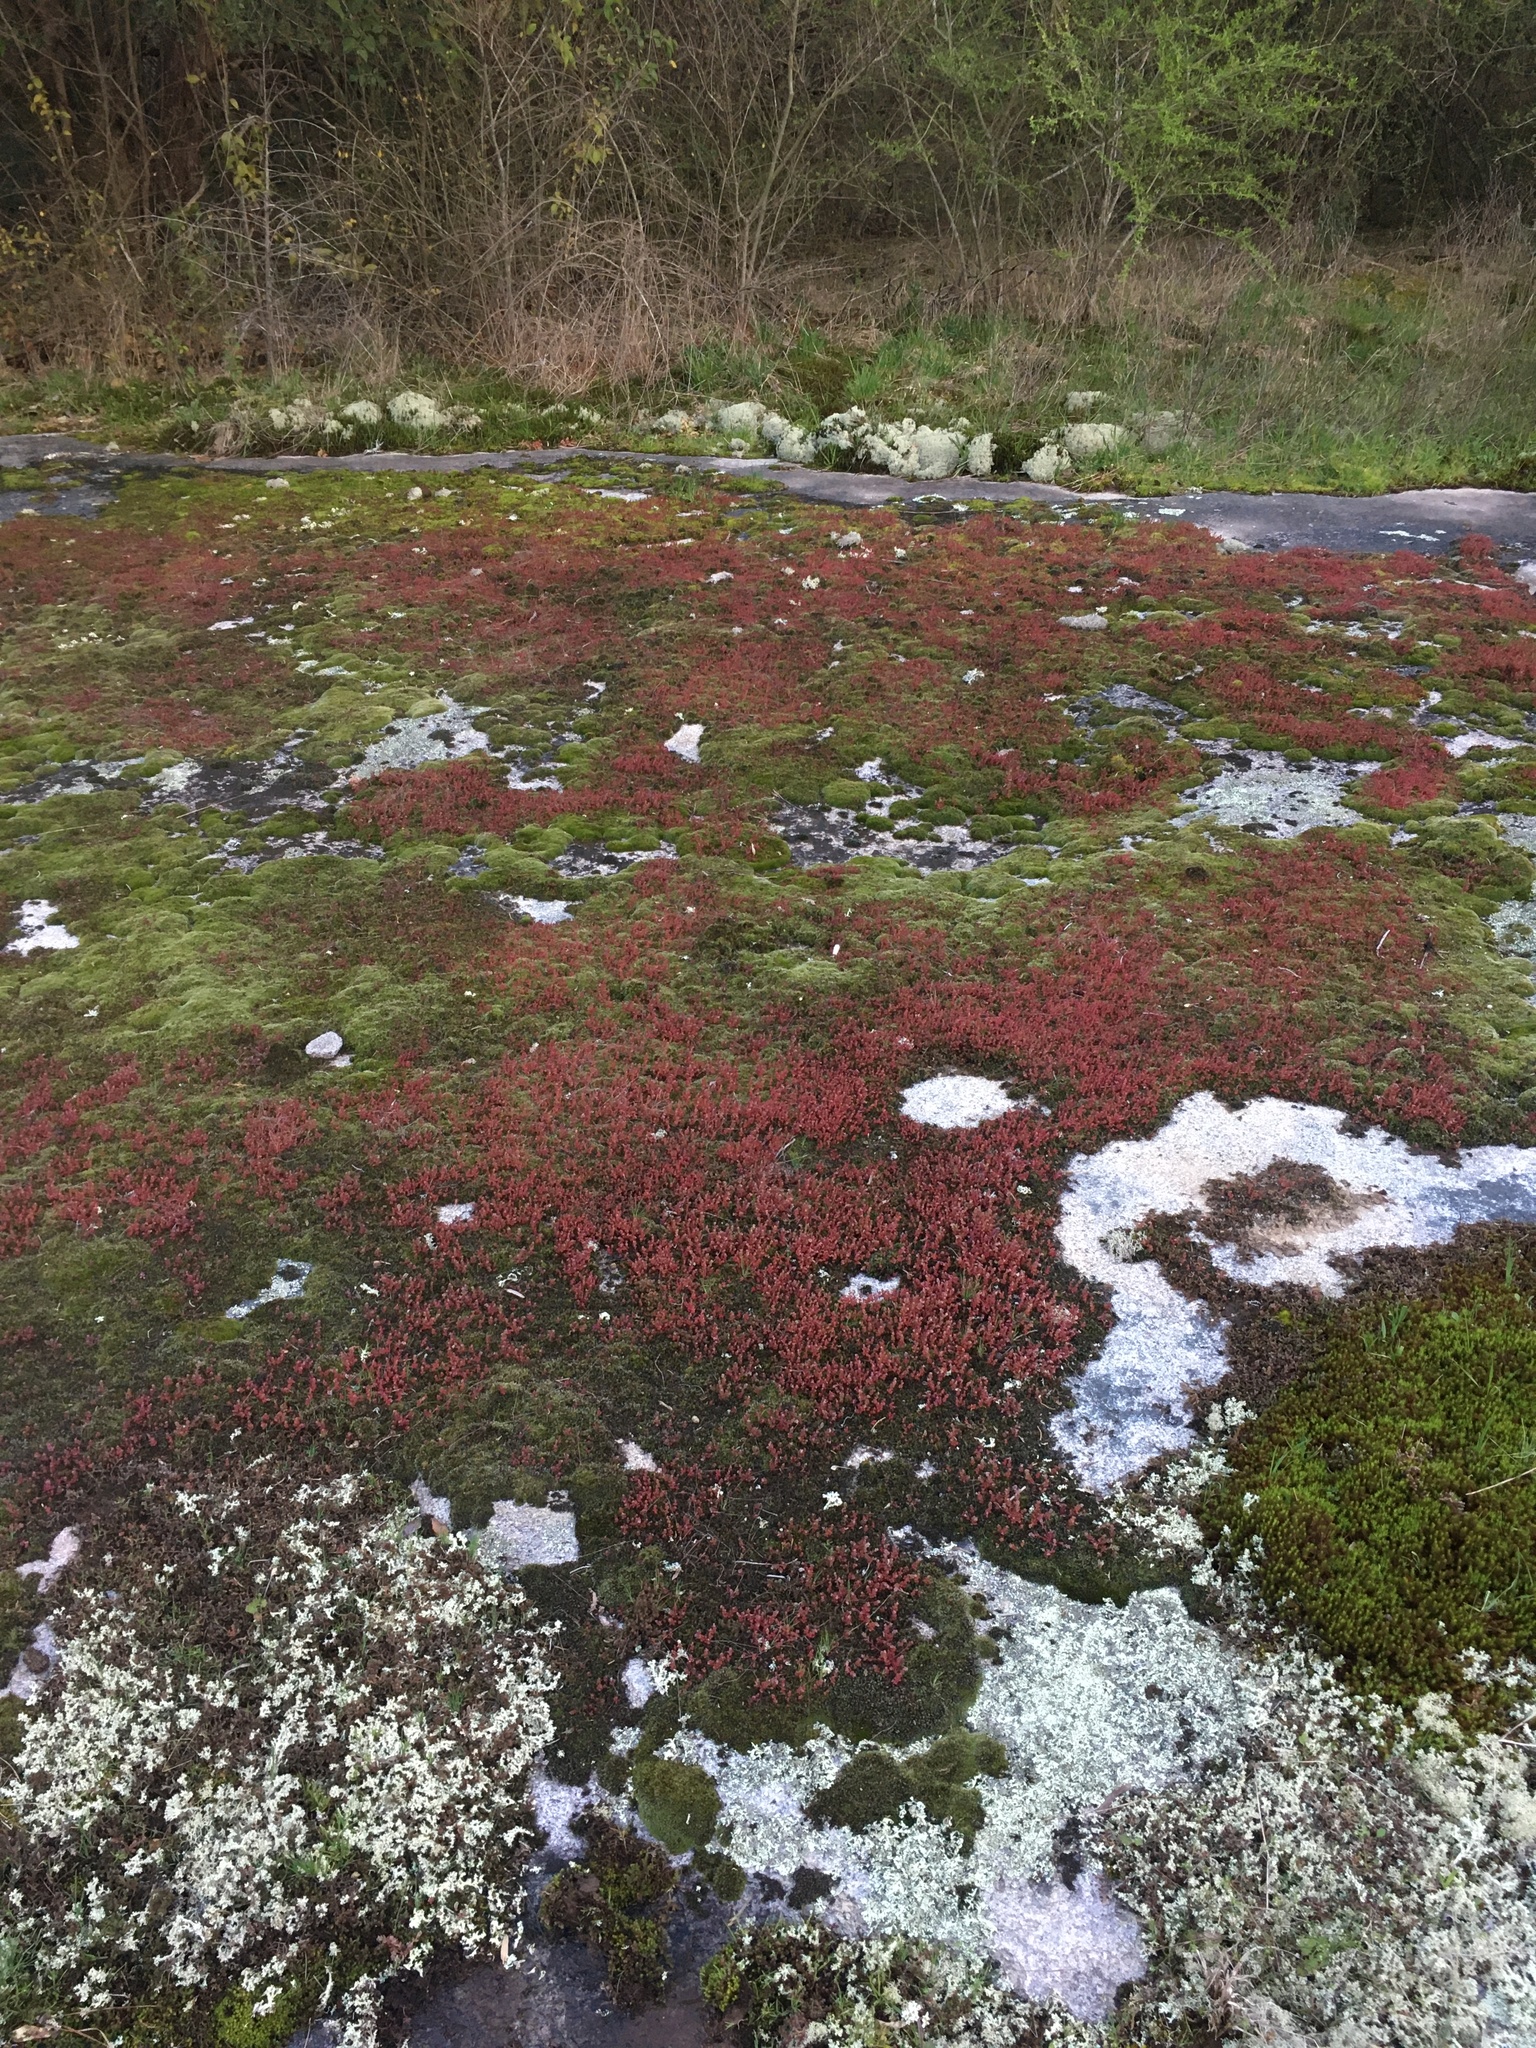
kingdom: Plantae
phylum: Tracheophyta
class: Magnoliopsida
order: Saxifragales
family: Crassulaceae
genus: Sedum
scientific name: Sedum smallii
